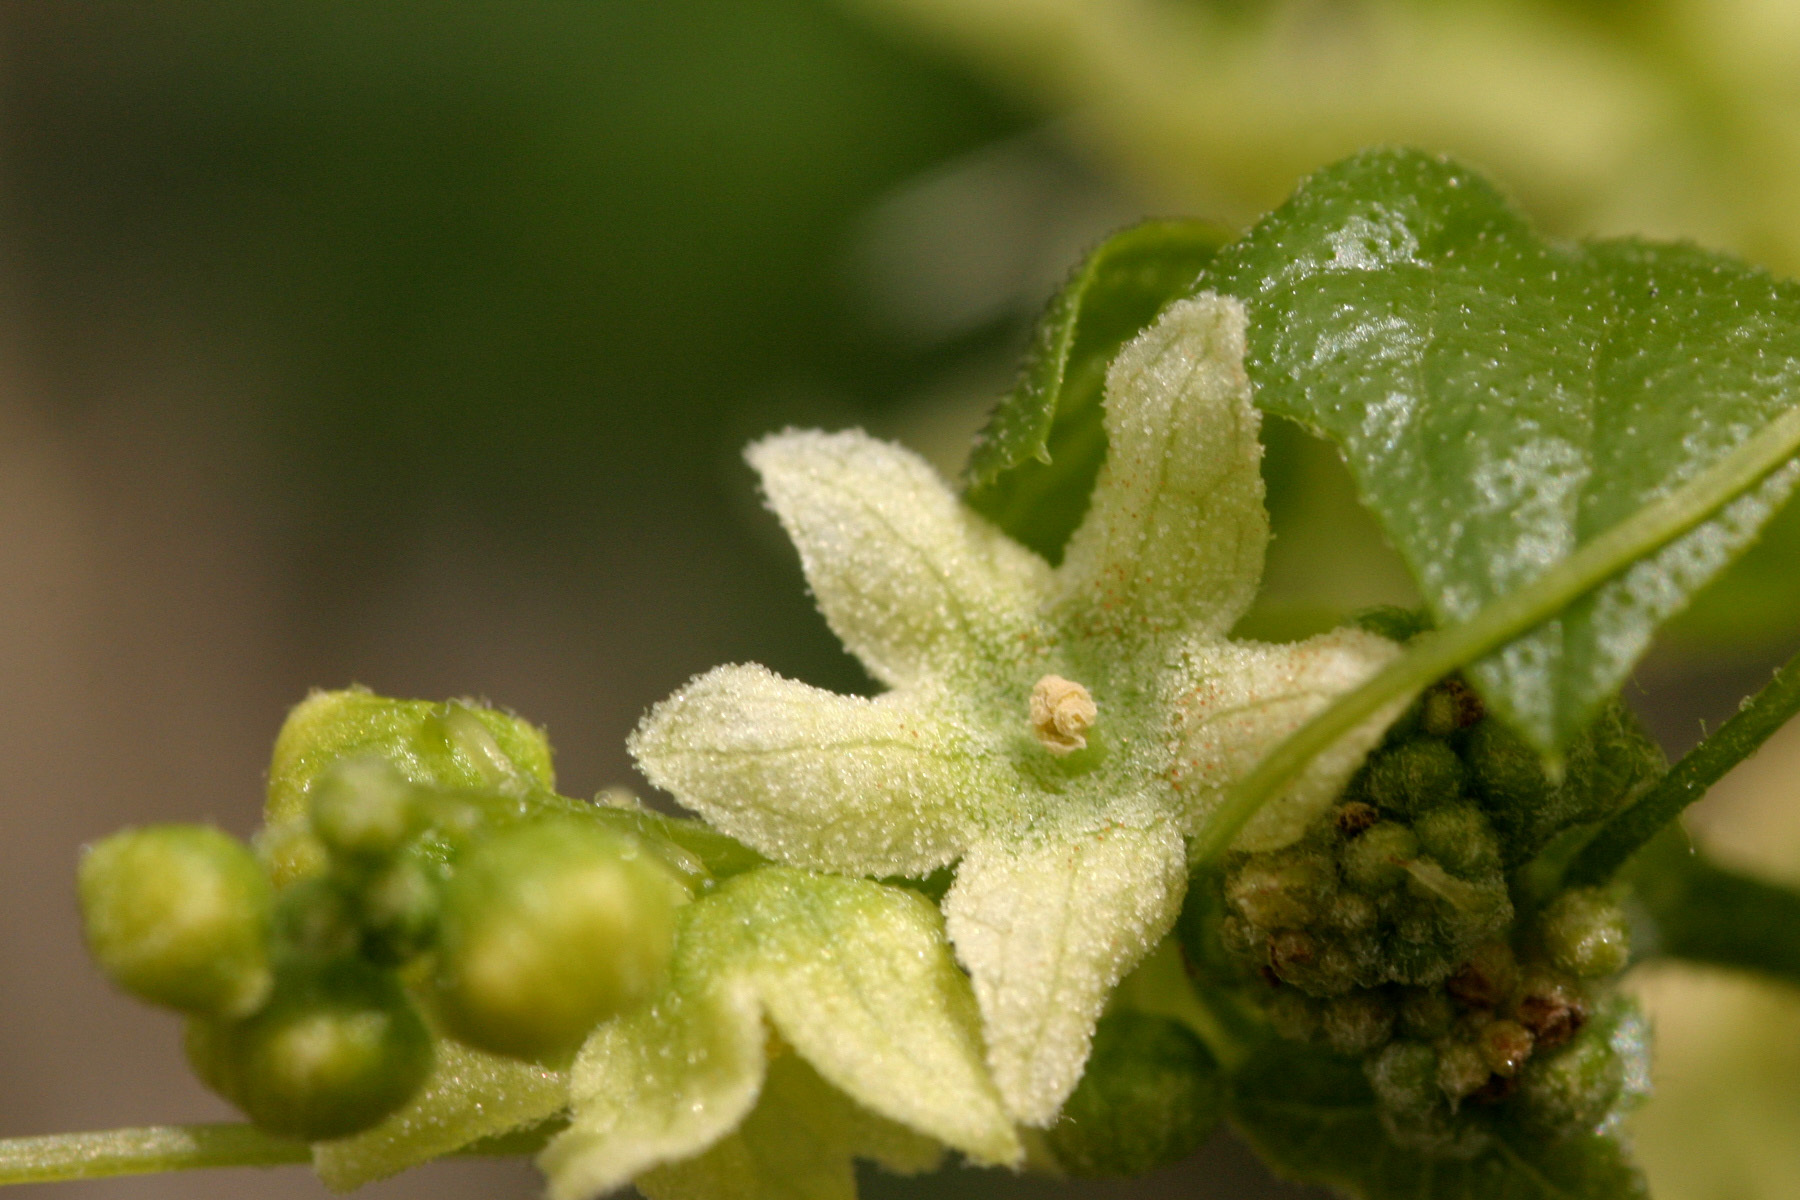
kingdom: Plantae
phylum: Tracheophyta
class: Magnoliopsida
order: Cucurbitales
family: Cucurbitaceae
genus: Marah
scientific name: Marah gilensis
